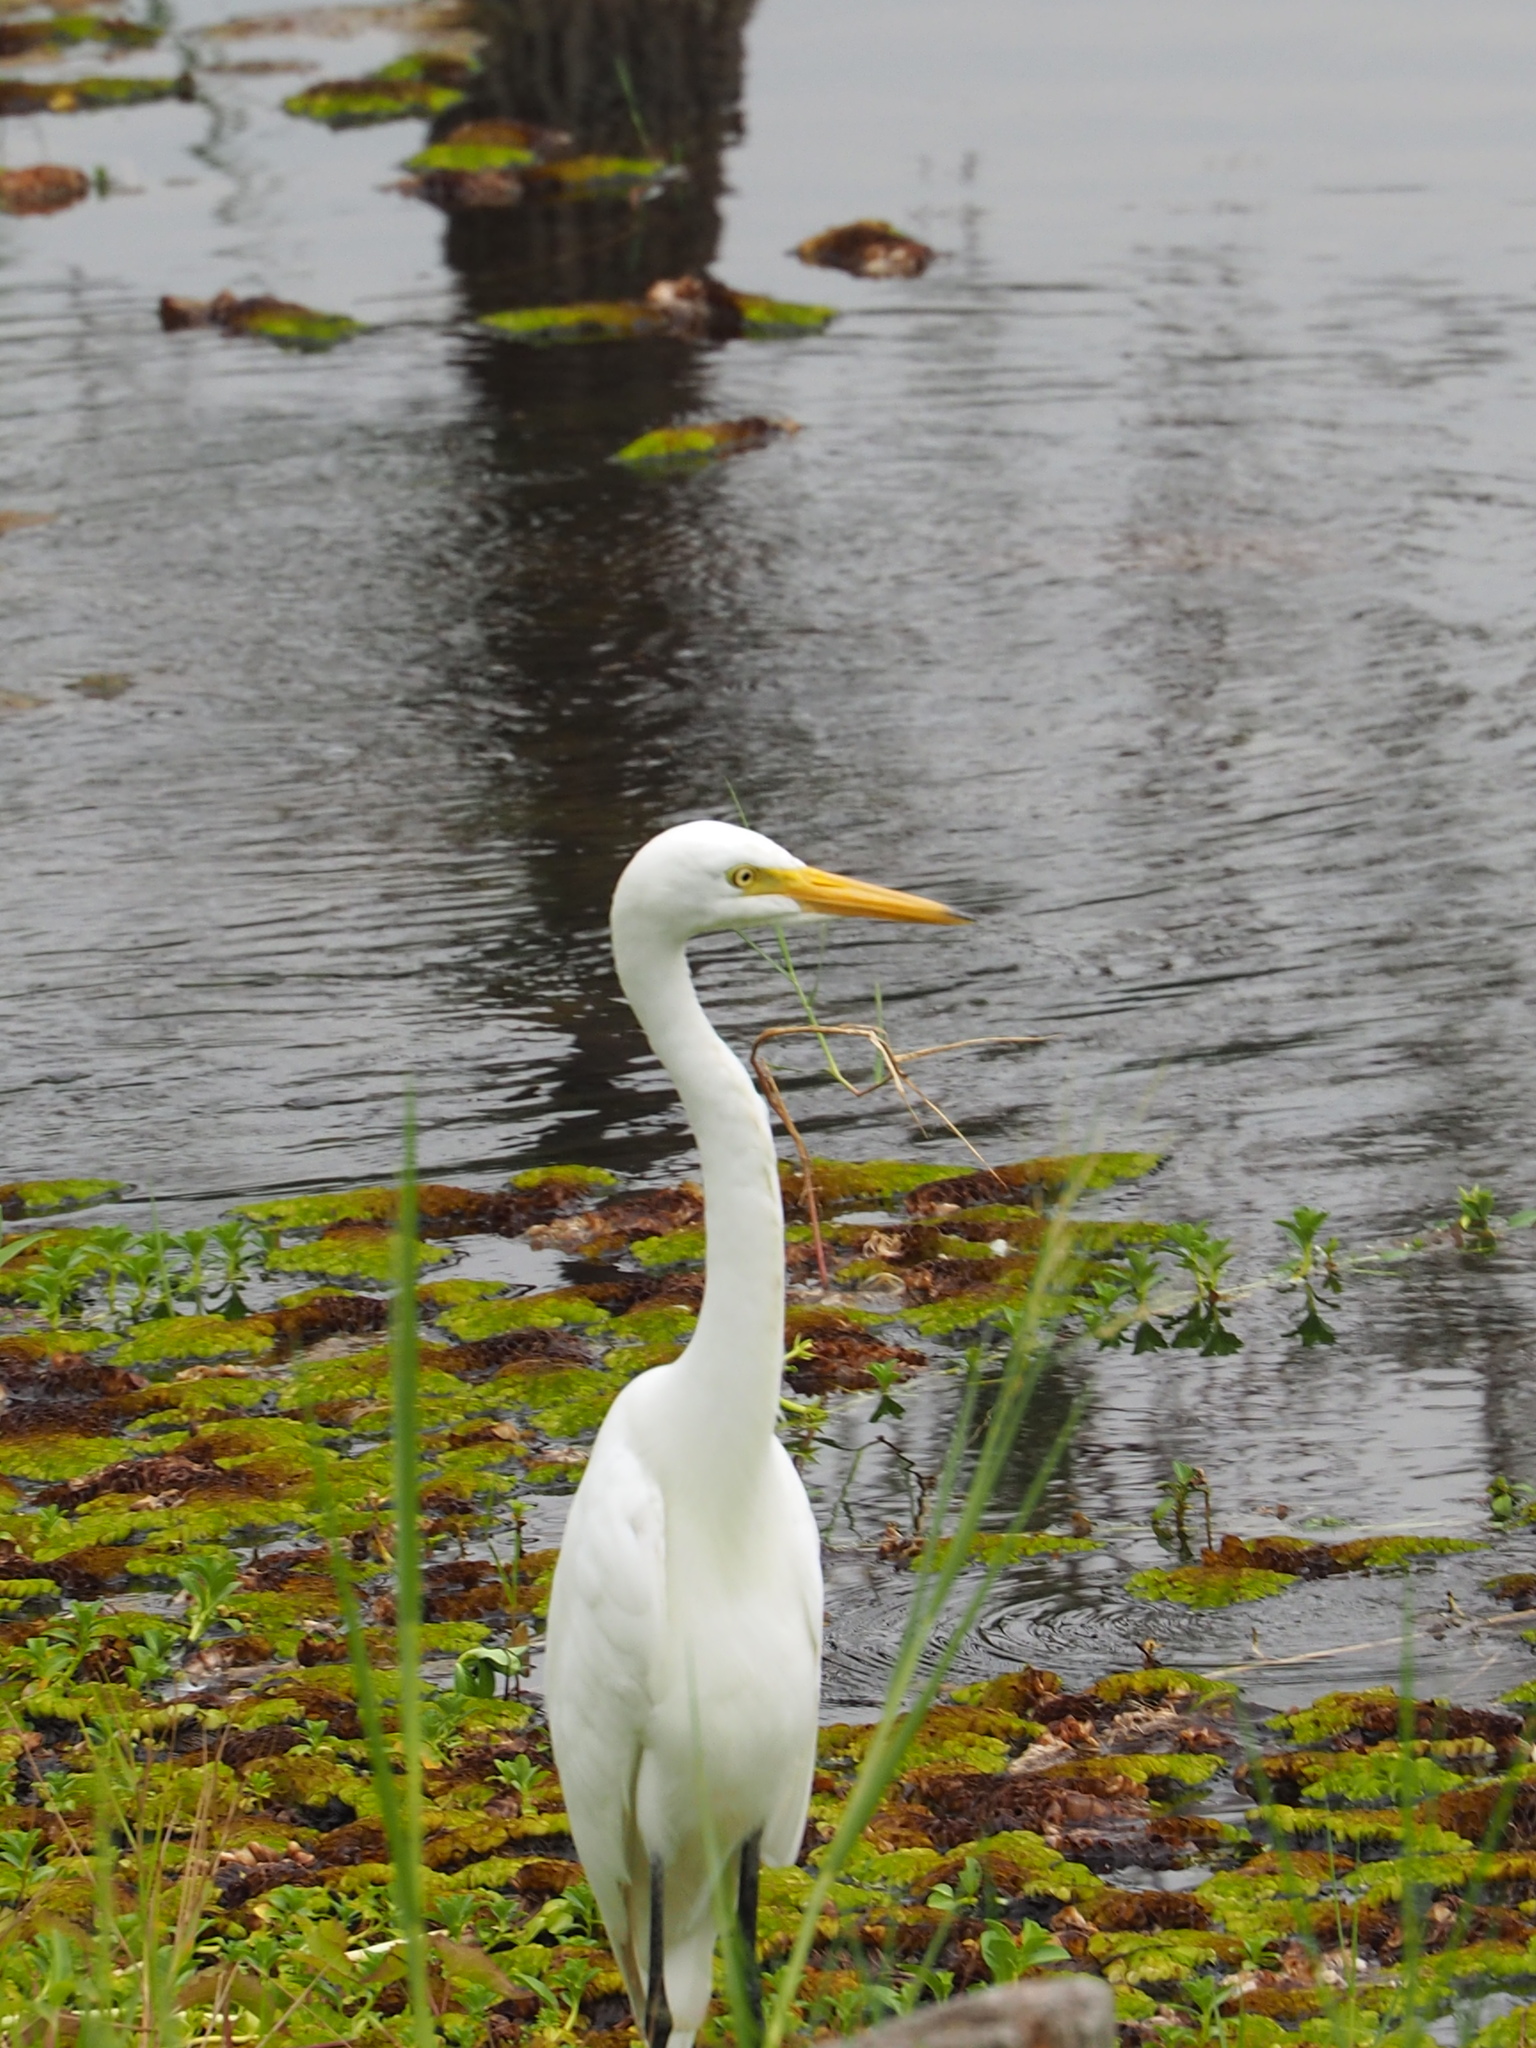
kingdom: Animalia
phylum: Chordata
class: Aves
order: Pelecaniformes
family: Ardeidae
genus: Egretta
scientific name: Egretta intermedia
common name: Intermediate egret
